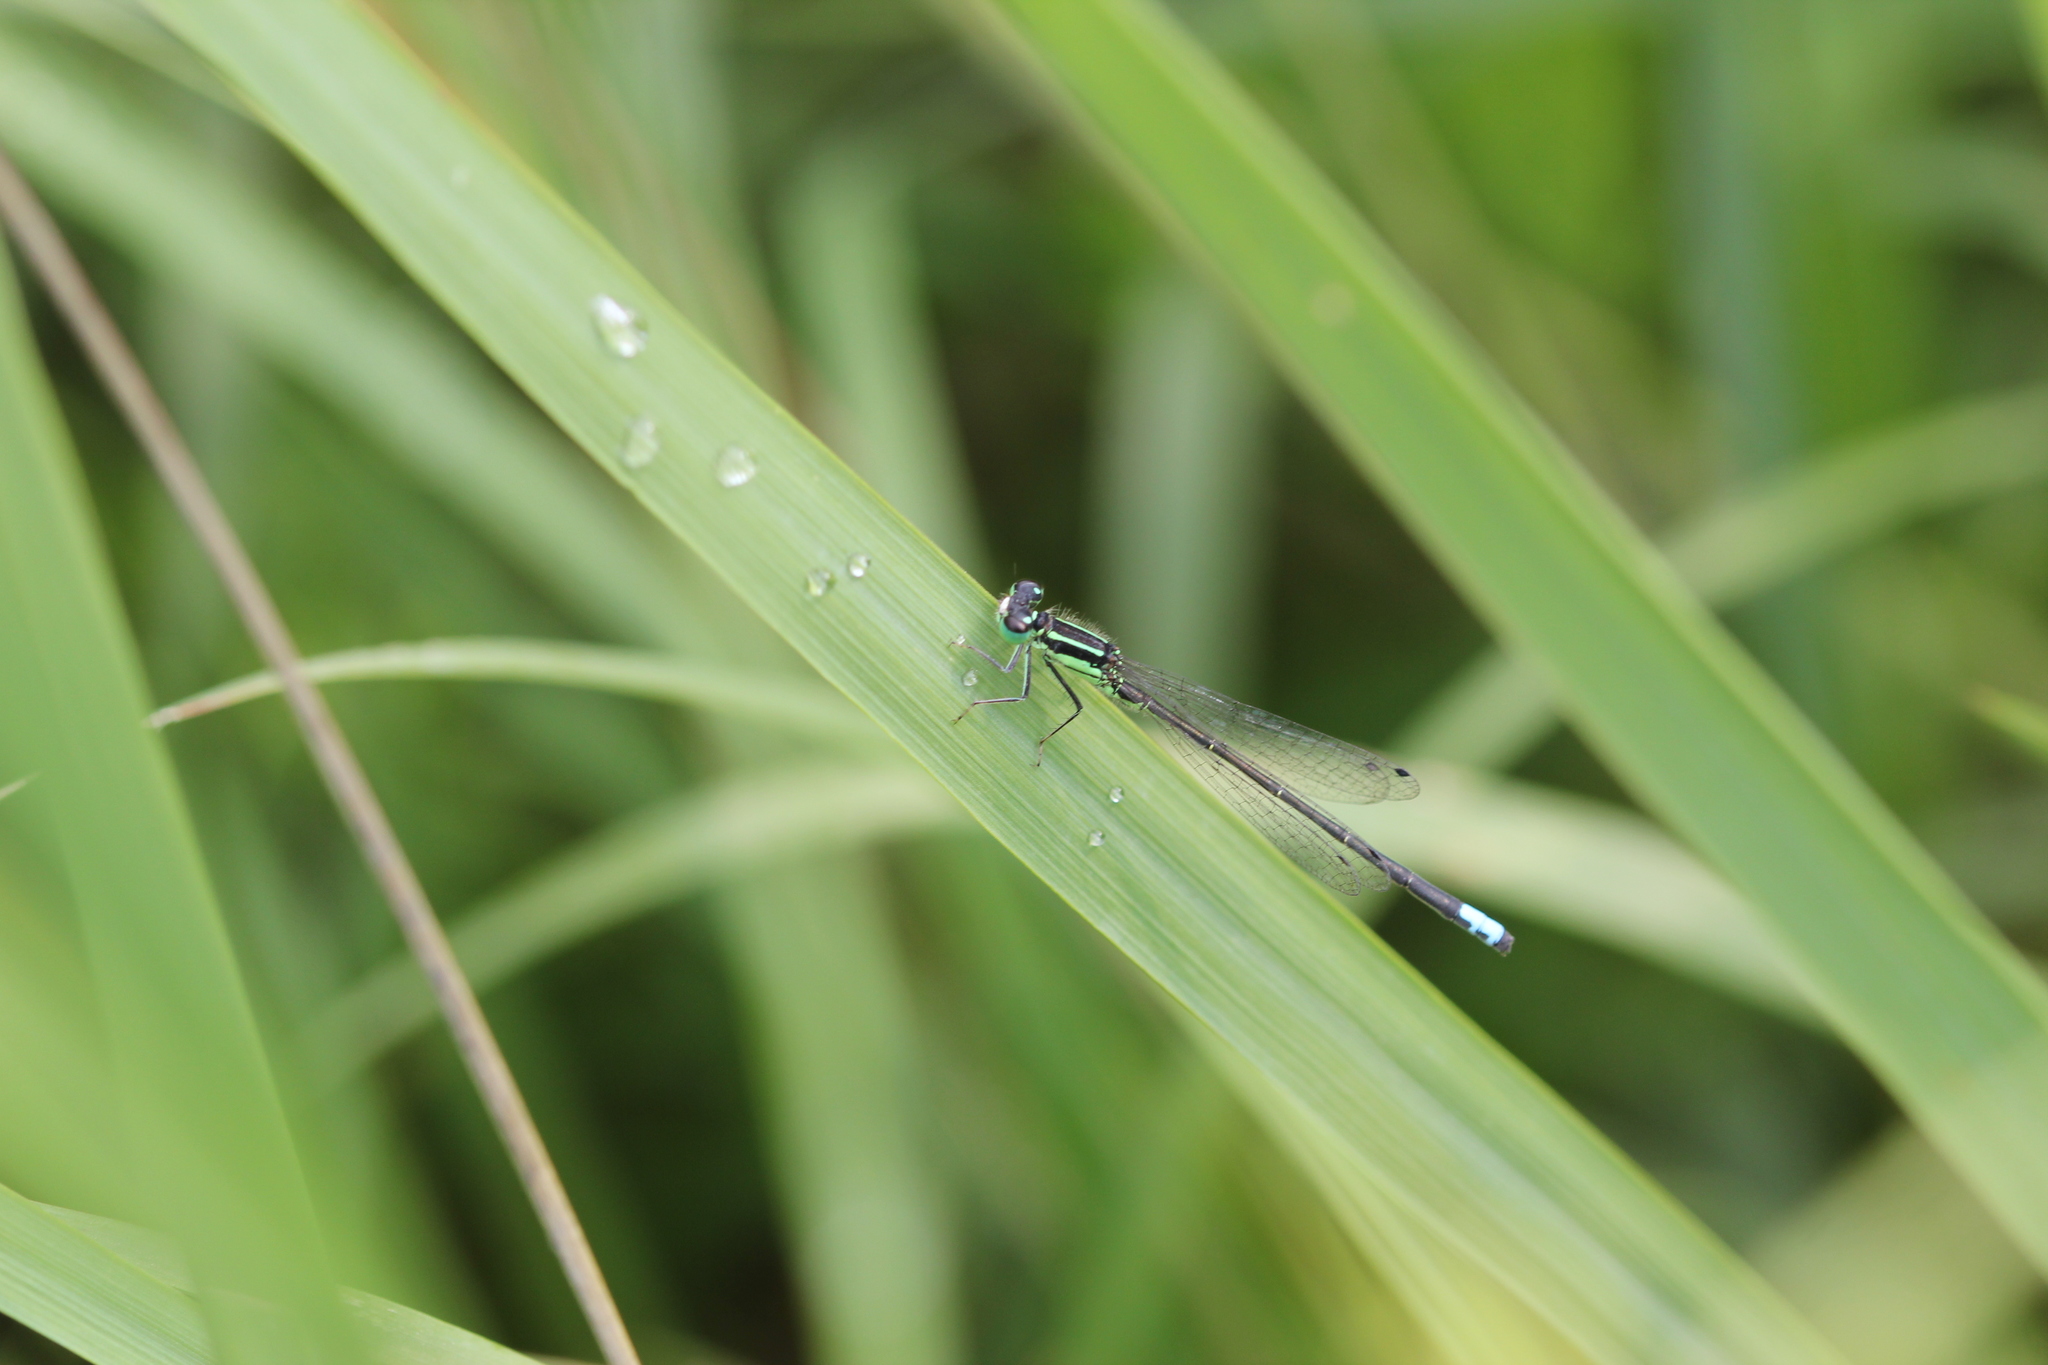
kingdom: Animalia
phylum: Arthropoda
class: Insecta
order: Odonata
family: Coenagrionidae
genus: Ischnura
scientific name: Ischnura verticalis
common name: Eastern forktail
